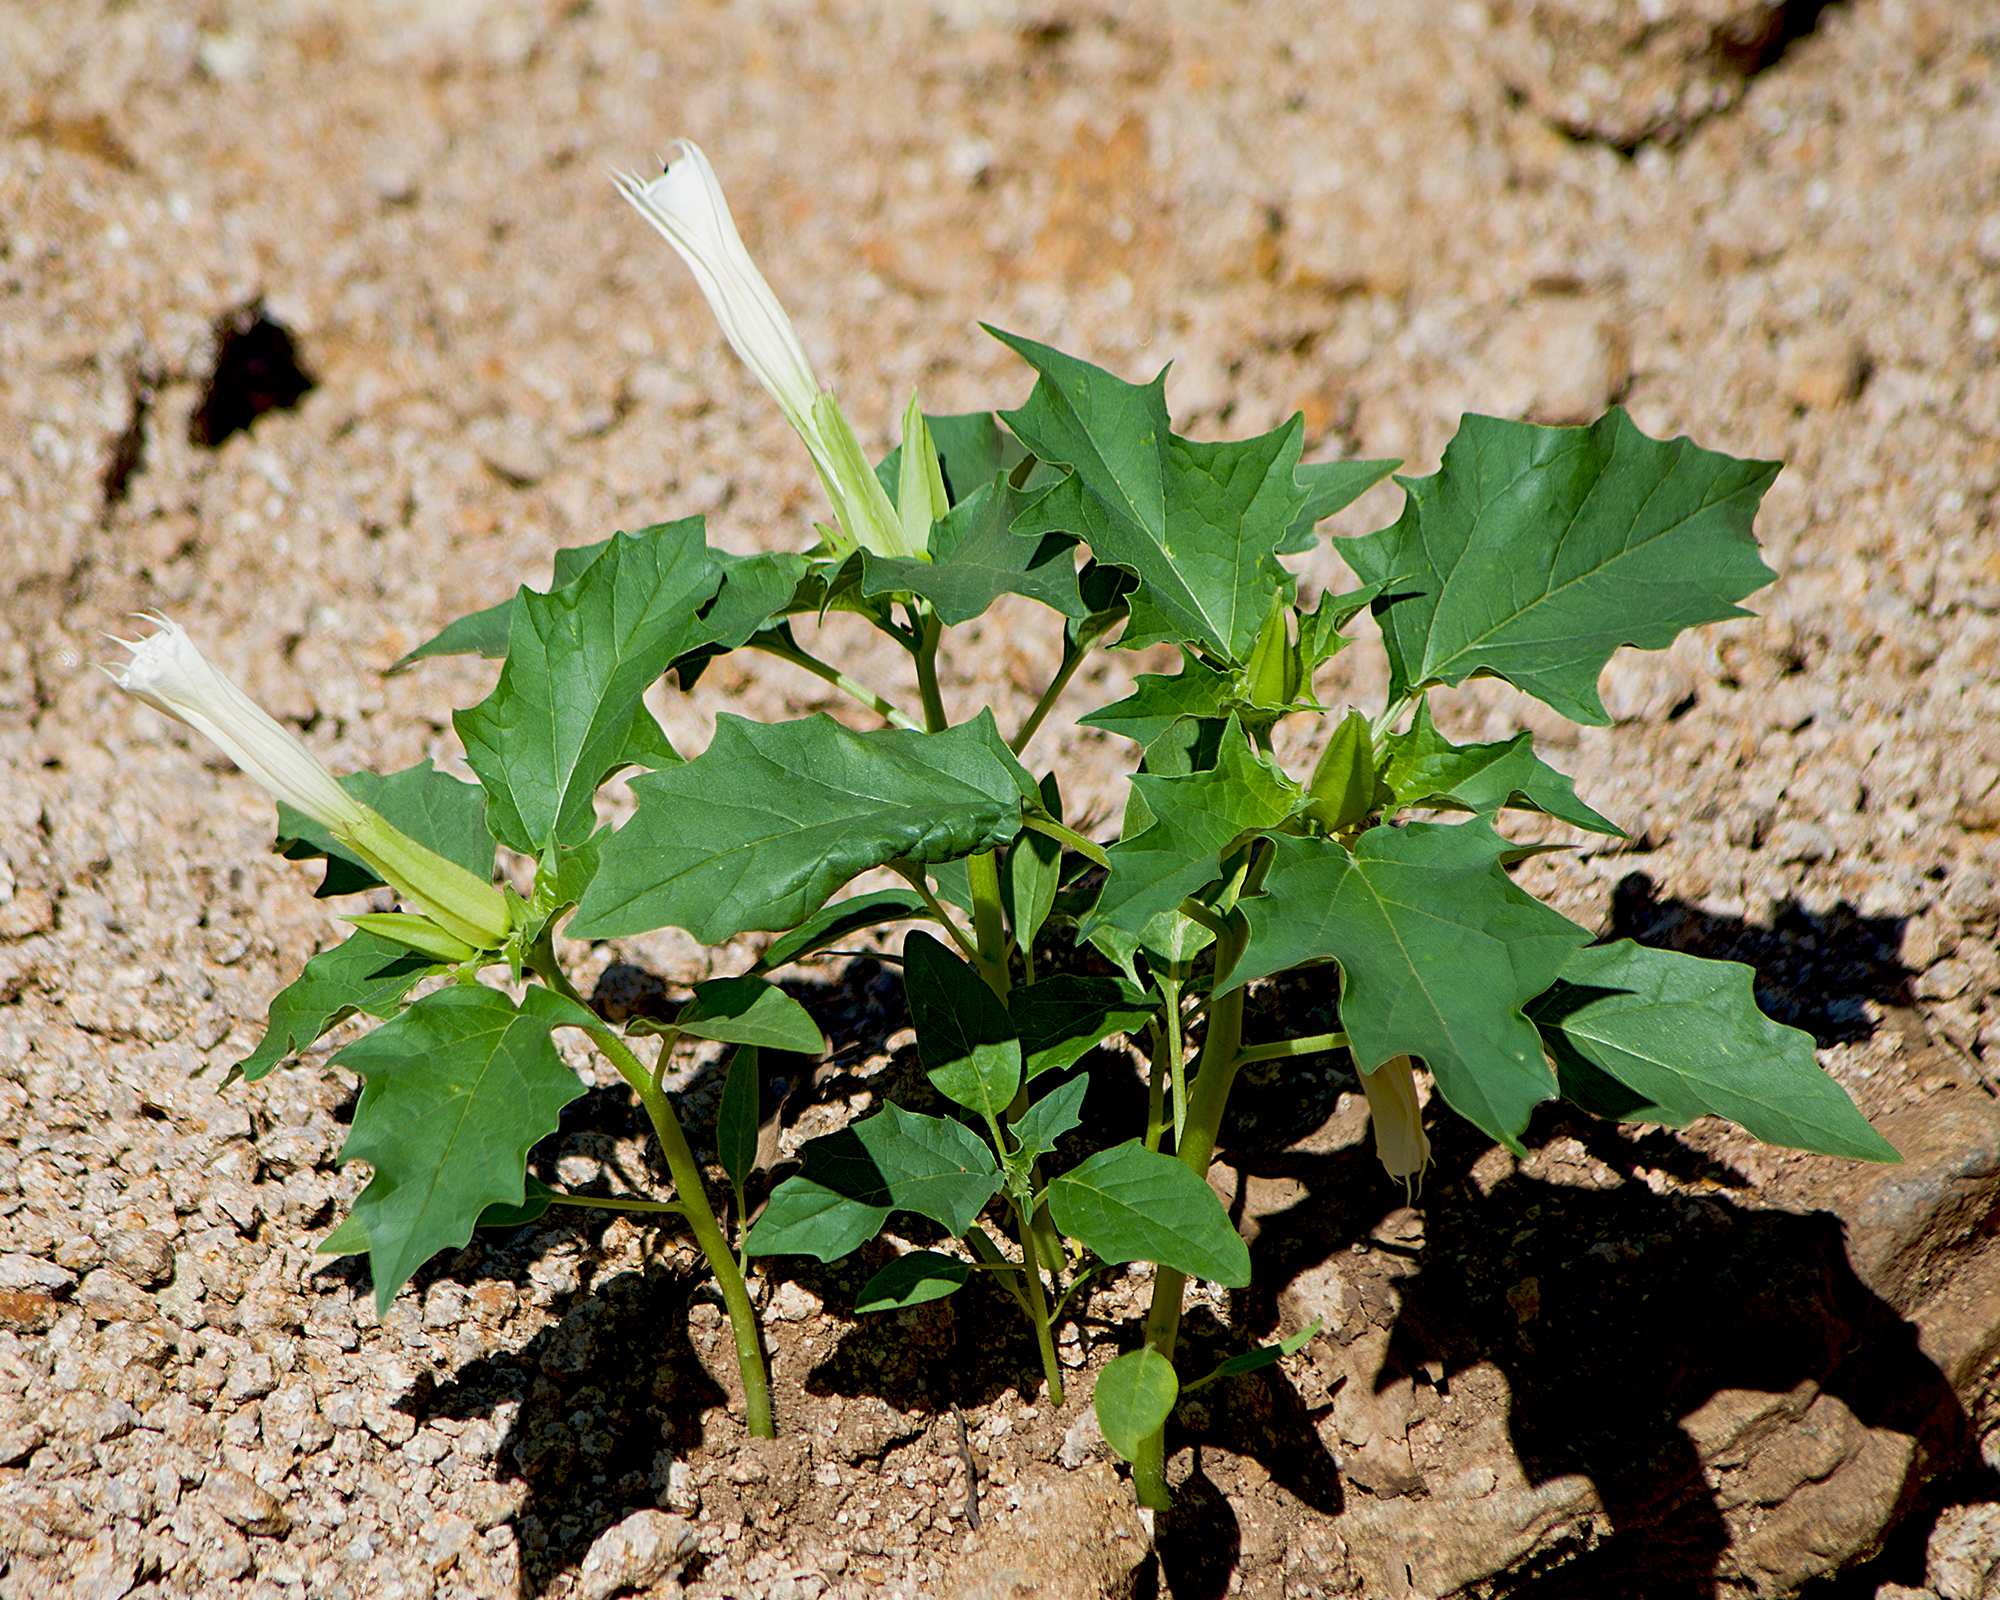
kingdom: Plantae
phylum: Tracheophyta
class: Magnoliopsida
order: Solanales
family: Solanaceae
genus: Datura
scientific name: Datura stramonium
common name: Thorn-apple
